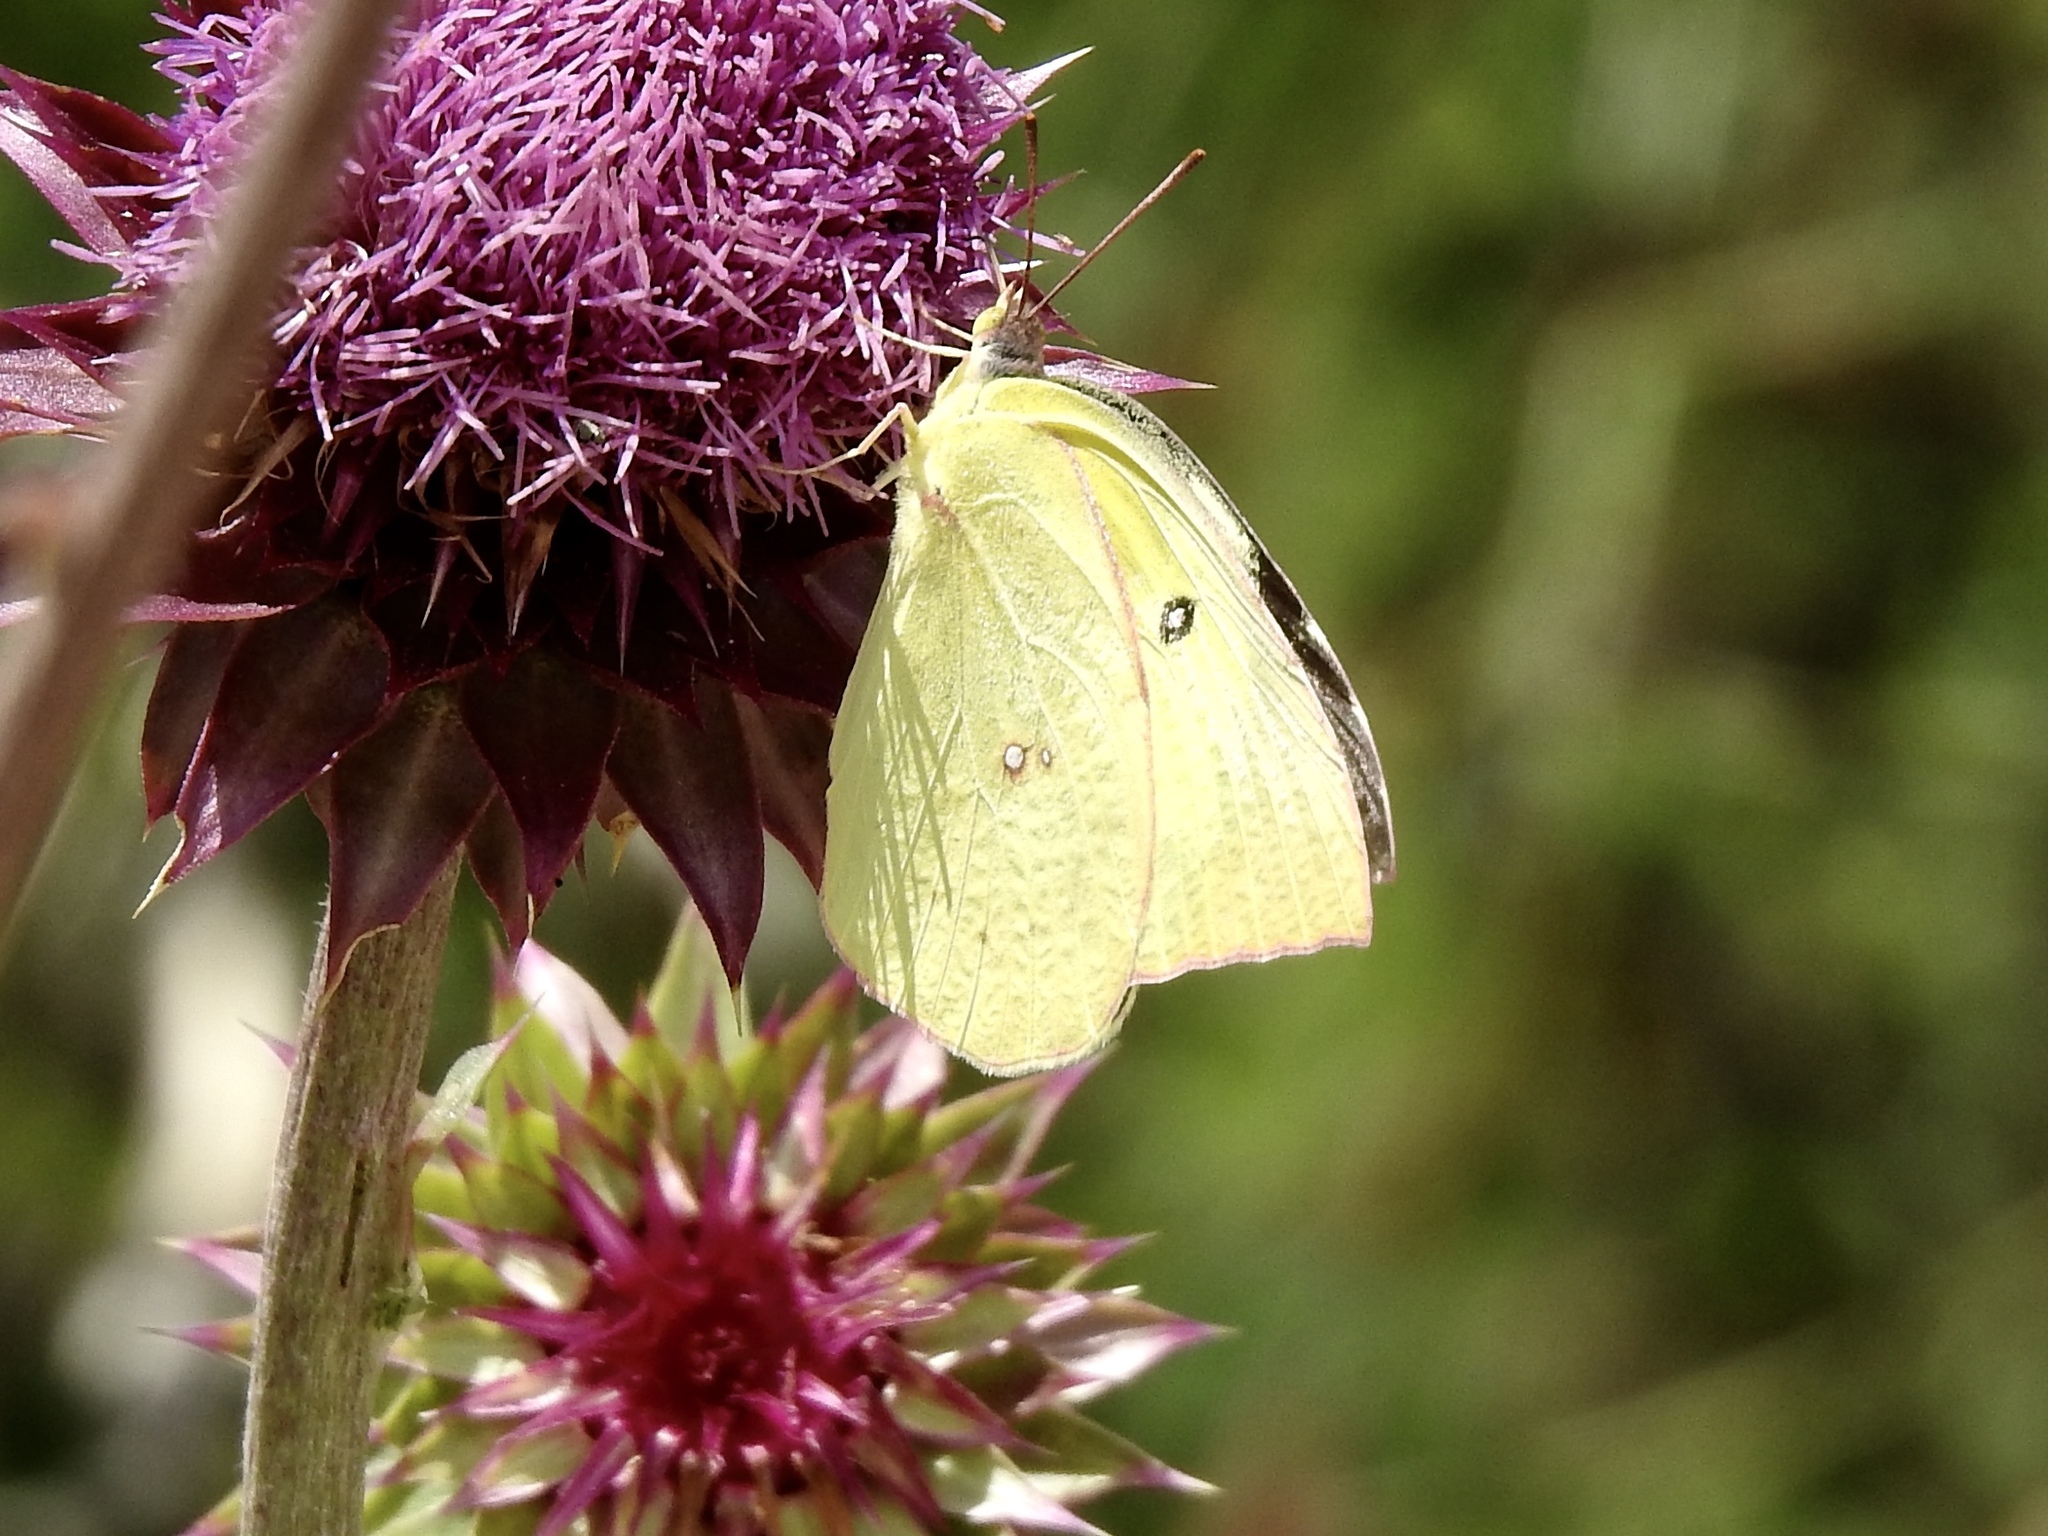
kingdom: Animalia
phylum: Arthropoda
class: Insecta
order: Lepidoptera
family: Pieridae
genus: Zerene
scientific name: Zerene cesonia
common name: Southern dogface
